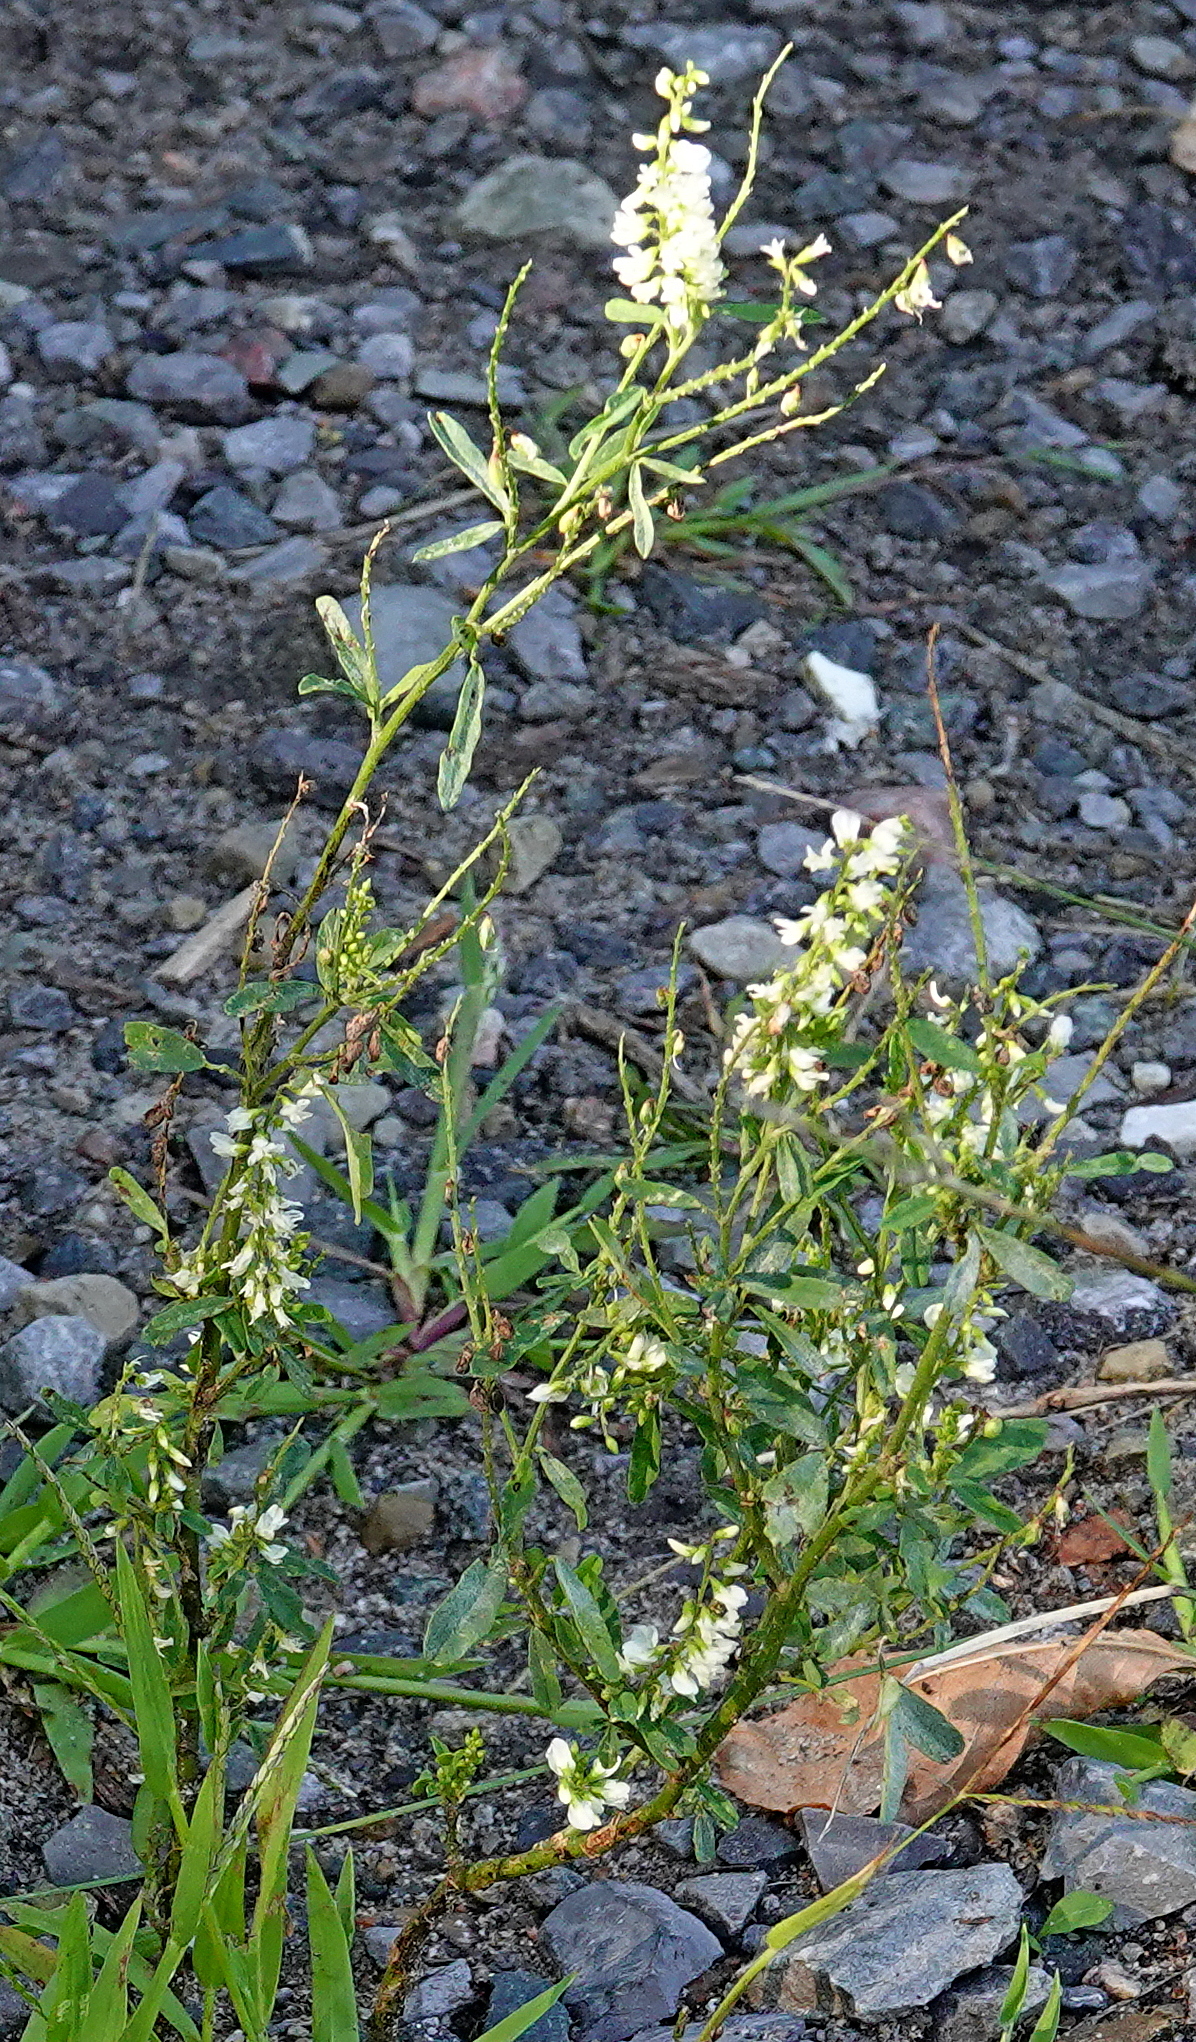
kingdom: Plantae
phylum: Tracheophyta
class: Magnoliopsida
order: Fabales
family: Fabaceae
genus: Melilotus
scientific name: Melilotus albus
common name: White melilot
